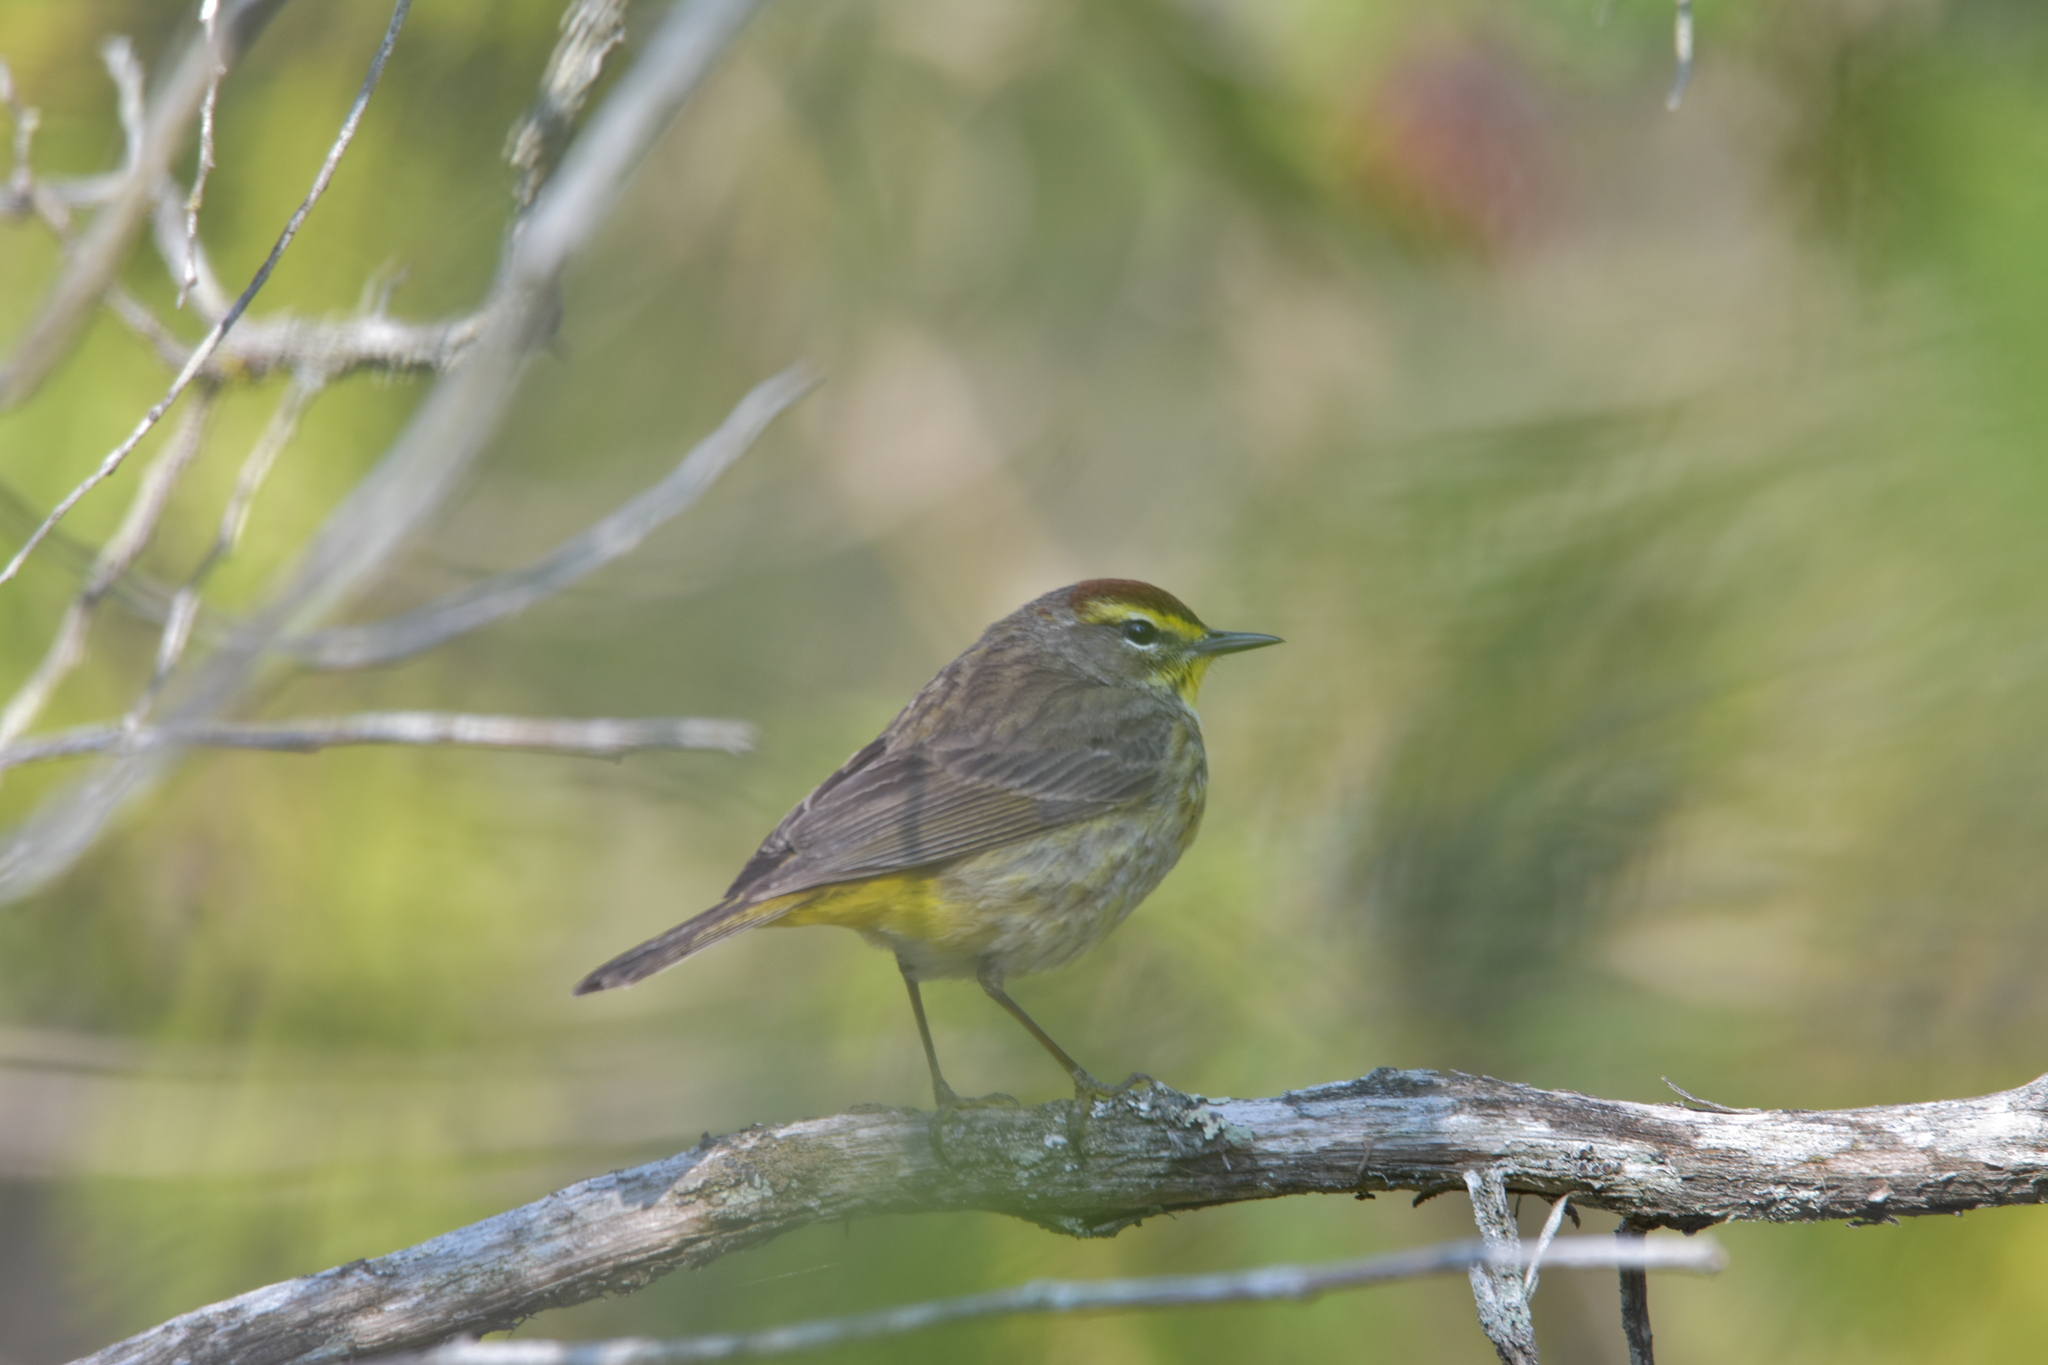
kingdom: Animalia
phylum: Chordata
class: Aves
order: Passeriformes
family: Parulidae
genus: Setophaga
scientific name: Setophaga palmarum
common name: Palm warbler
